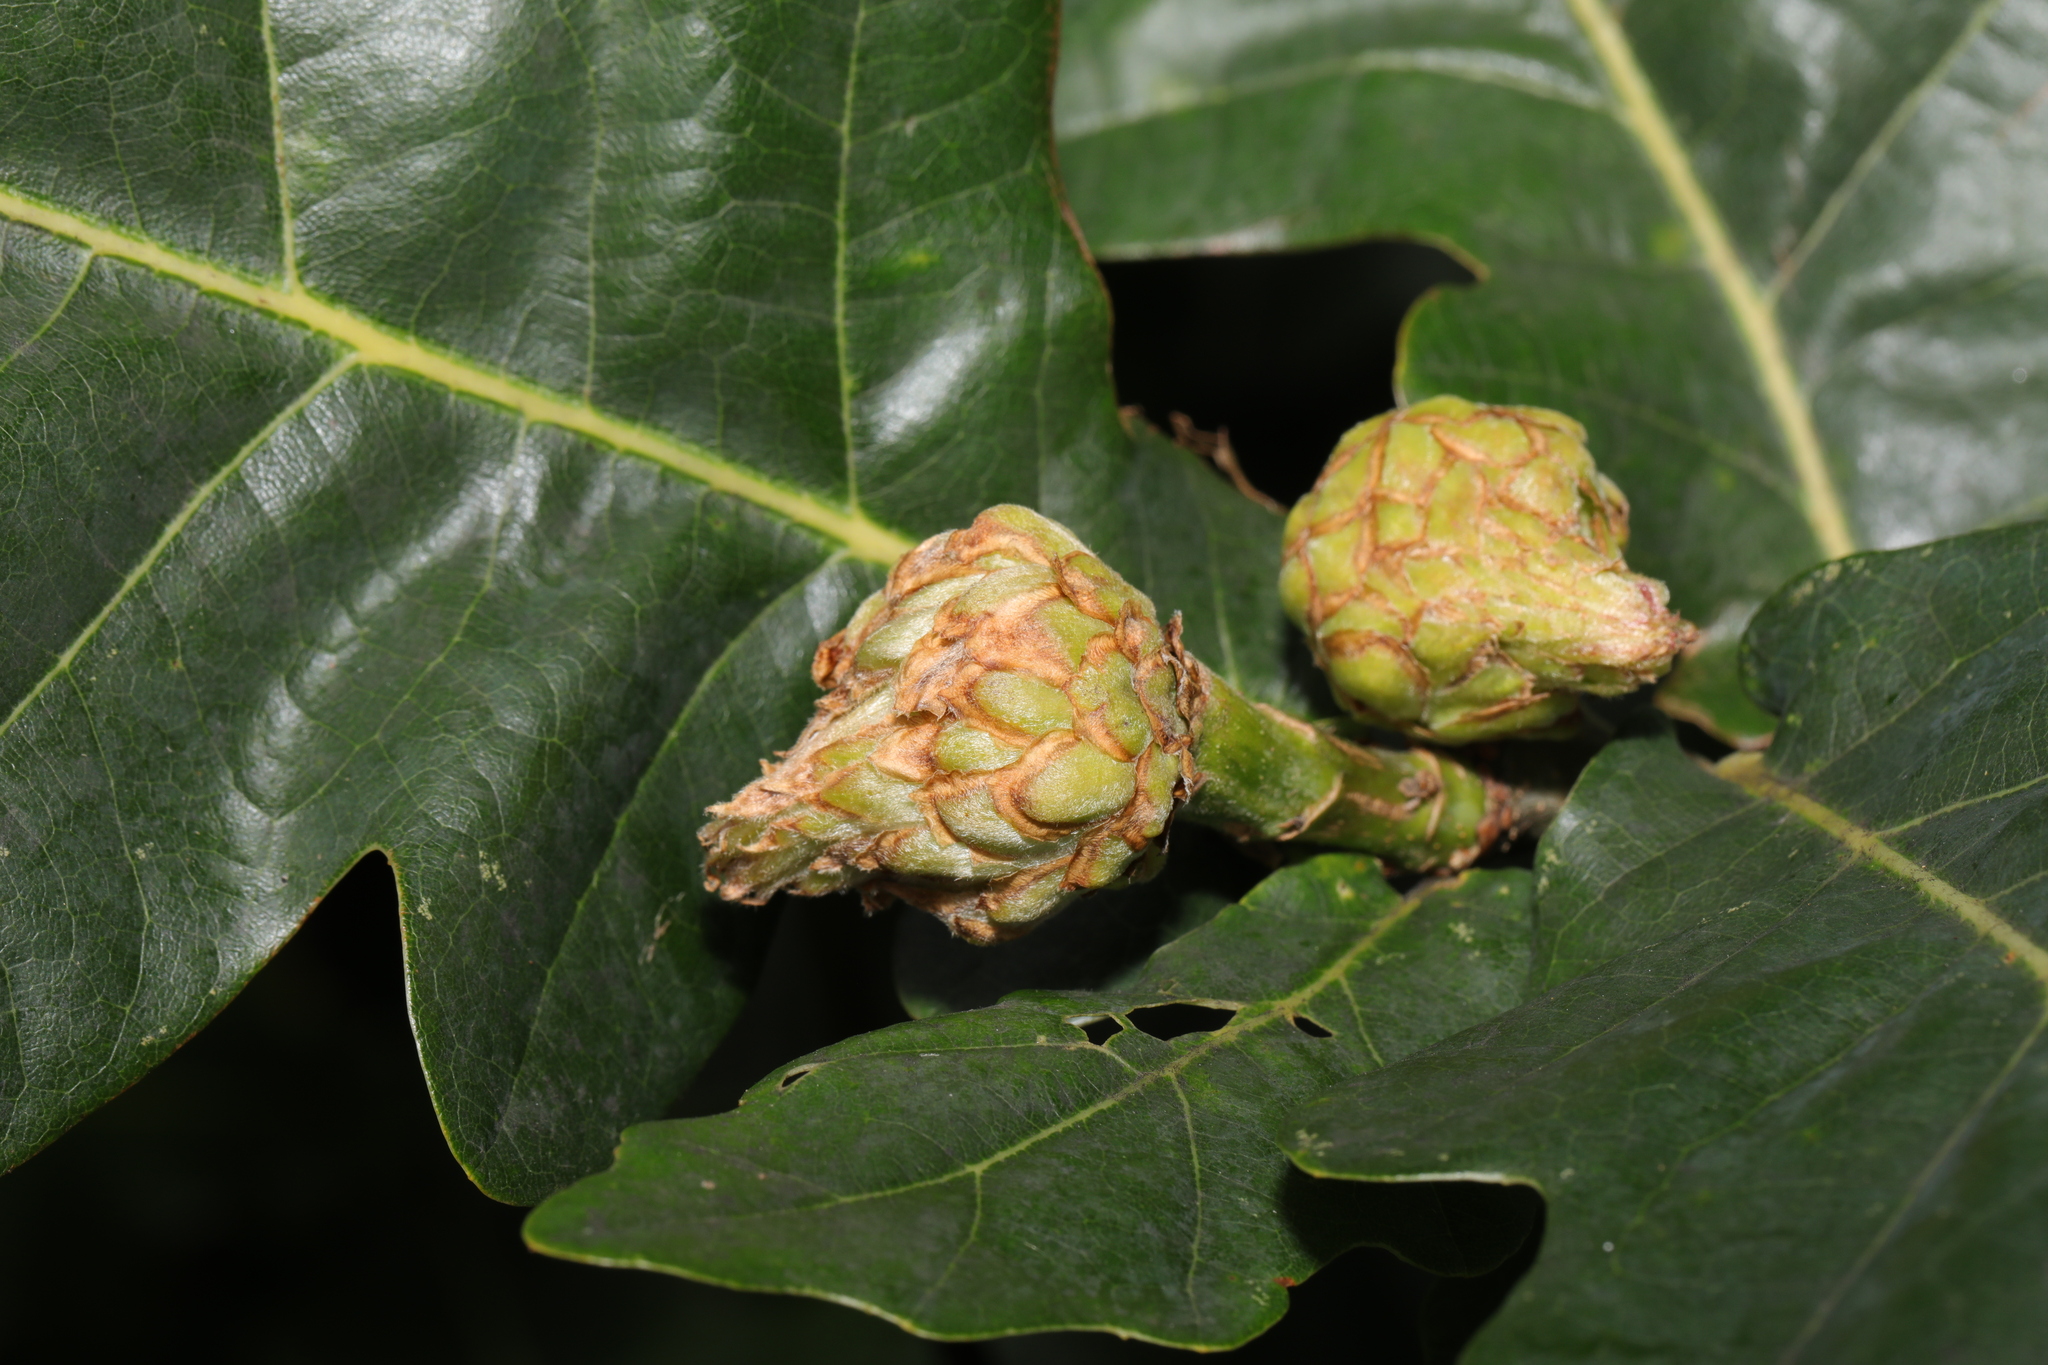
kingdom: Animalia
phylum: Arthropoda
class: Insecta
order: Hymenoptera
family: Cynipidae
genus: Andricus
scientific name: Andricus foecundatrix
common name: Artichoke gall
